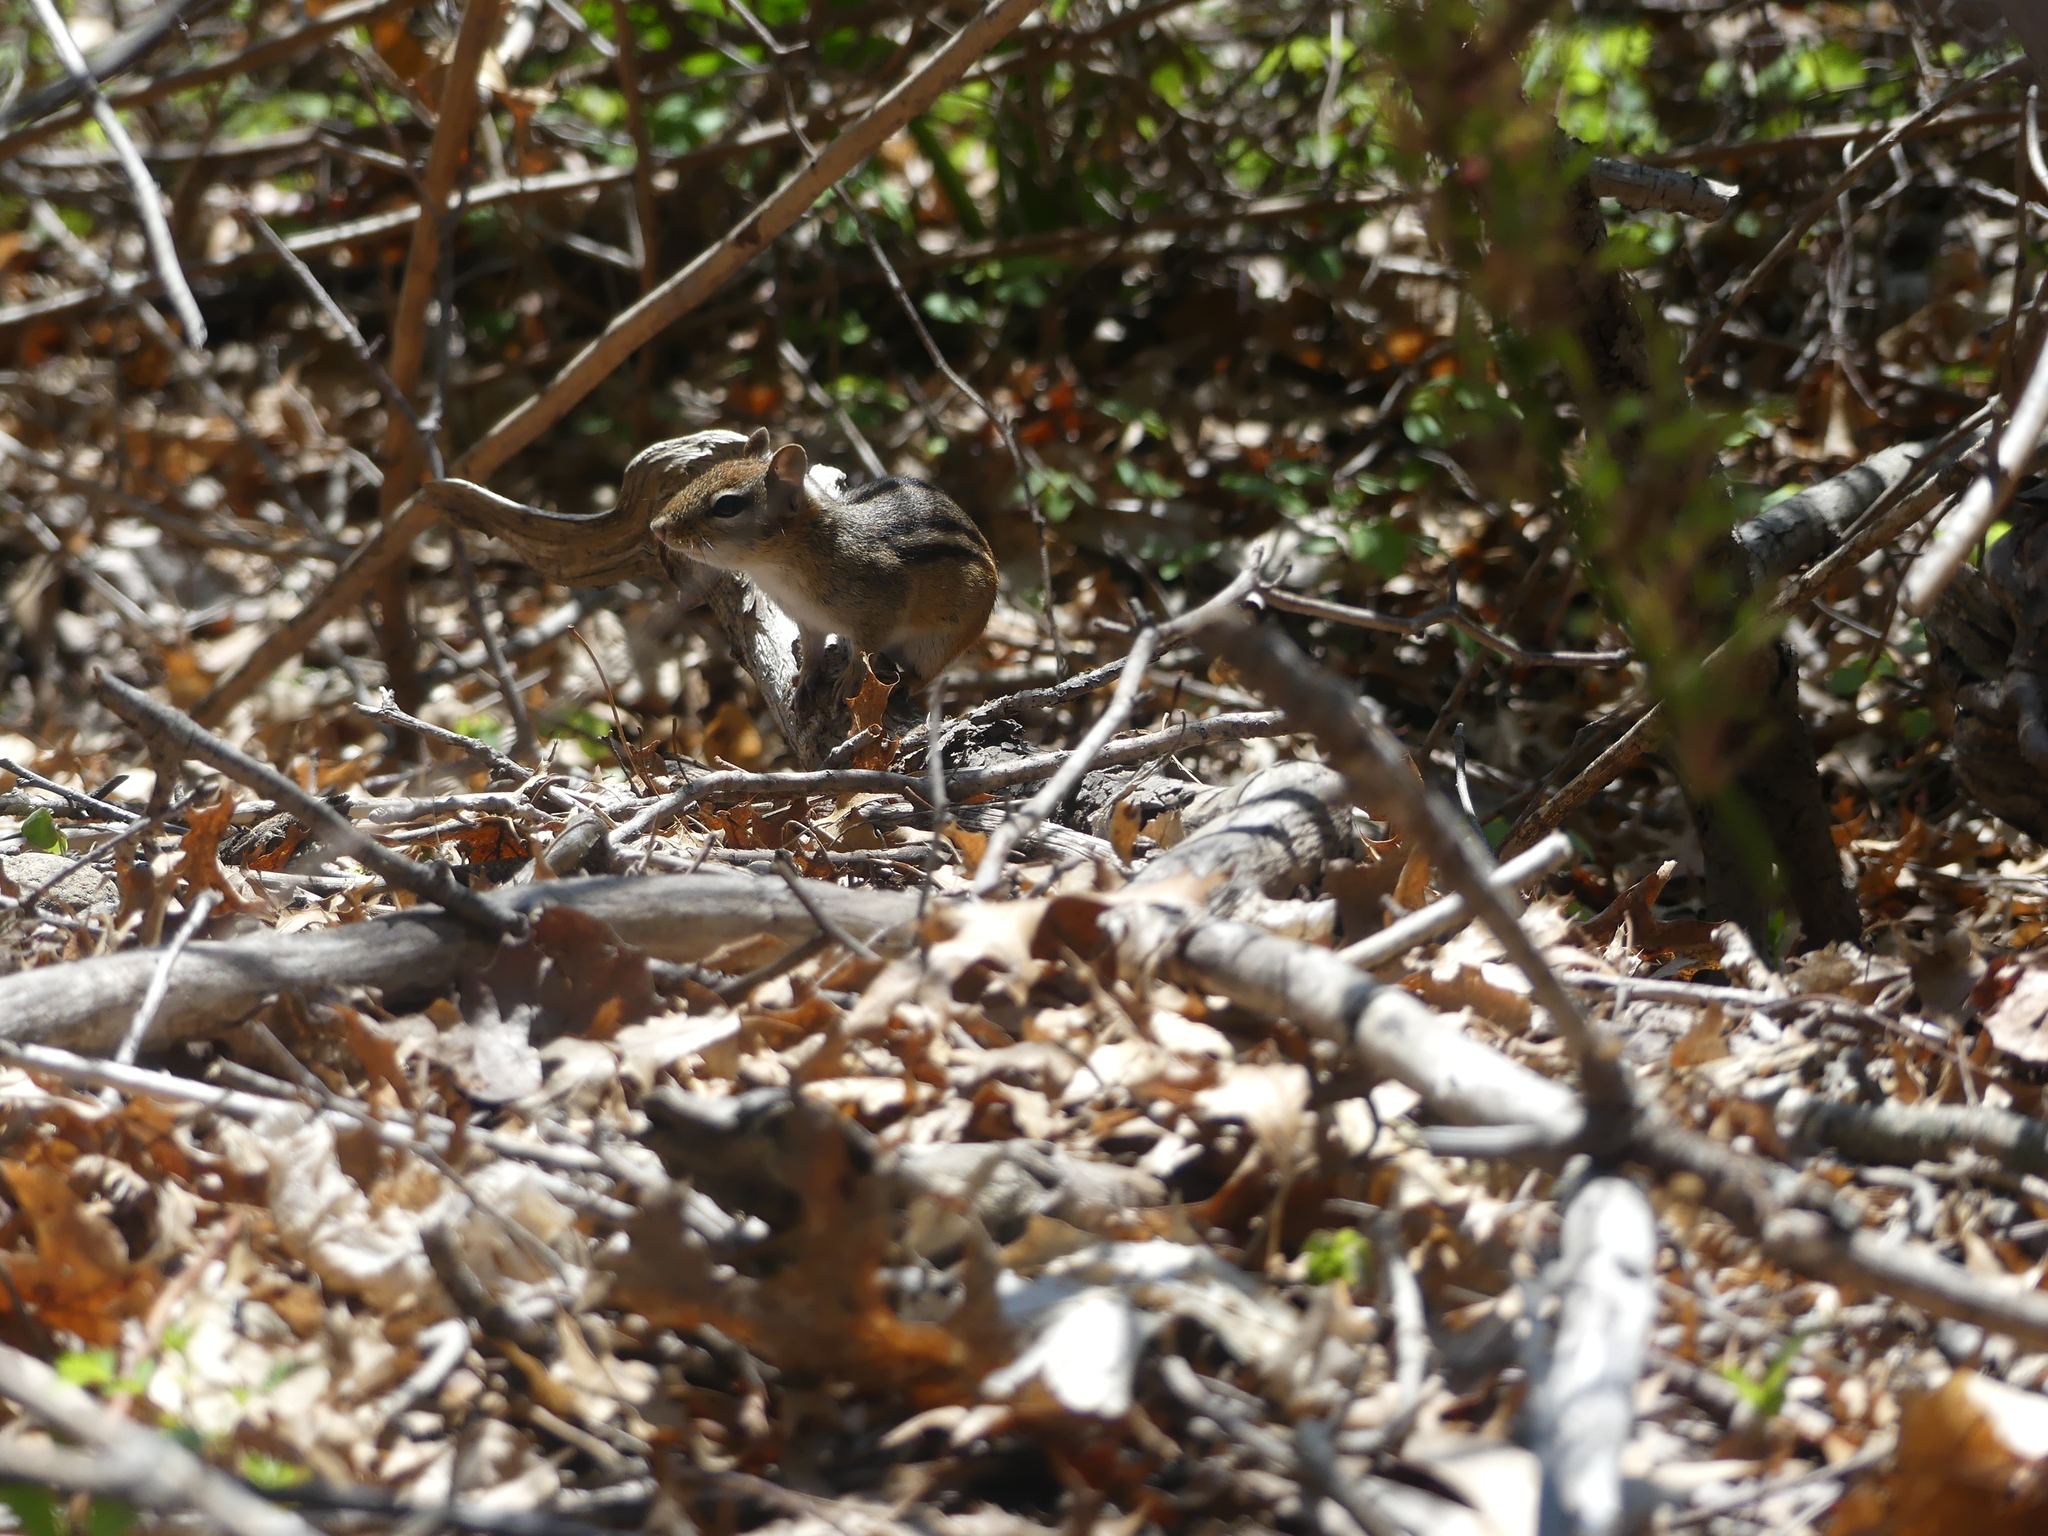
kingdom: Animalia
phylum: Chordata
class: Mammalia
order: Rodentia
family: Sciuridae
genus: Tamias
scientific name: Tamias striatus
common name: Eastern chipmunk
